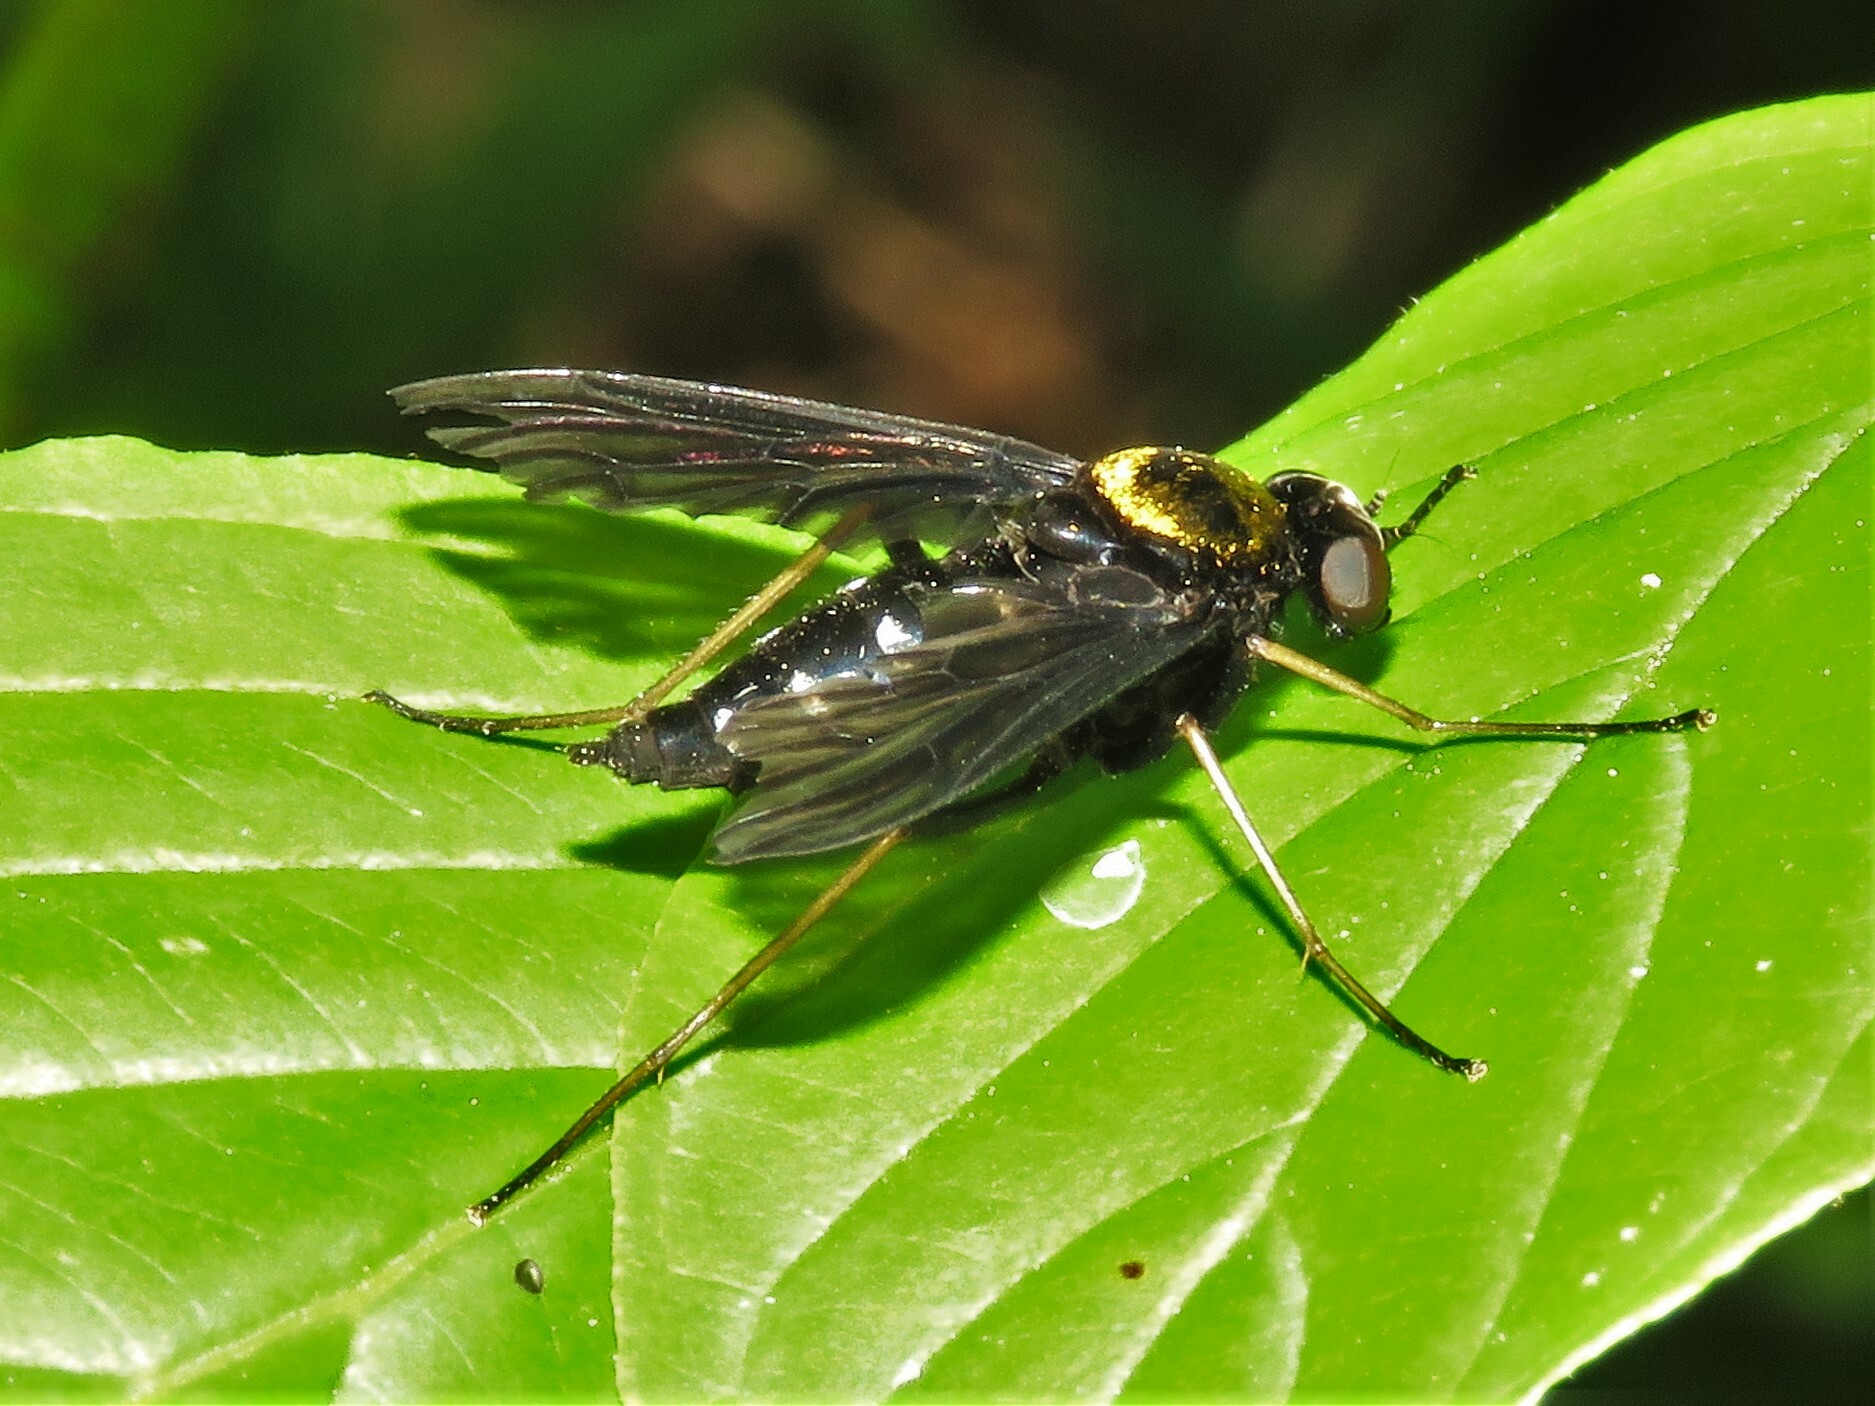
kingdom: Animalia
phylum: Arthropoda
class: Insecta
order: Diptera
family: Rhagionidae
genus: Chrysopilus
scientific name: Chrysopilus thoracicus
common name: Golden-backed snipe fly
